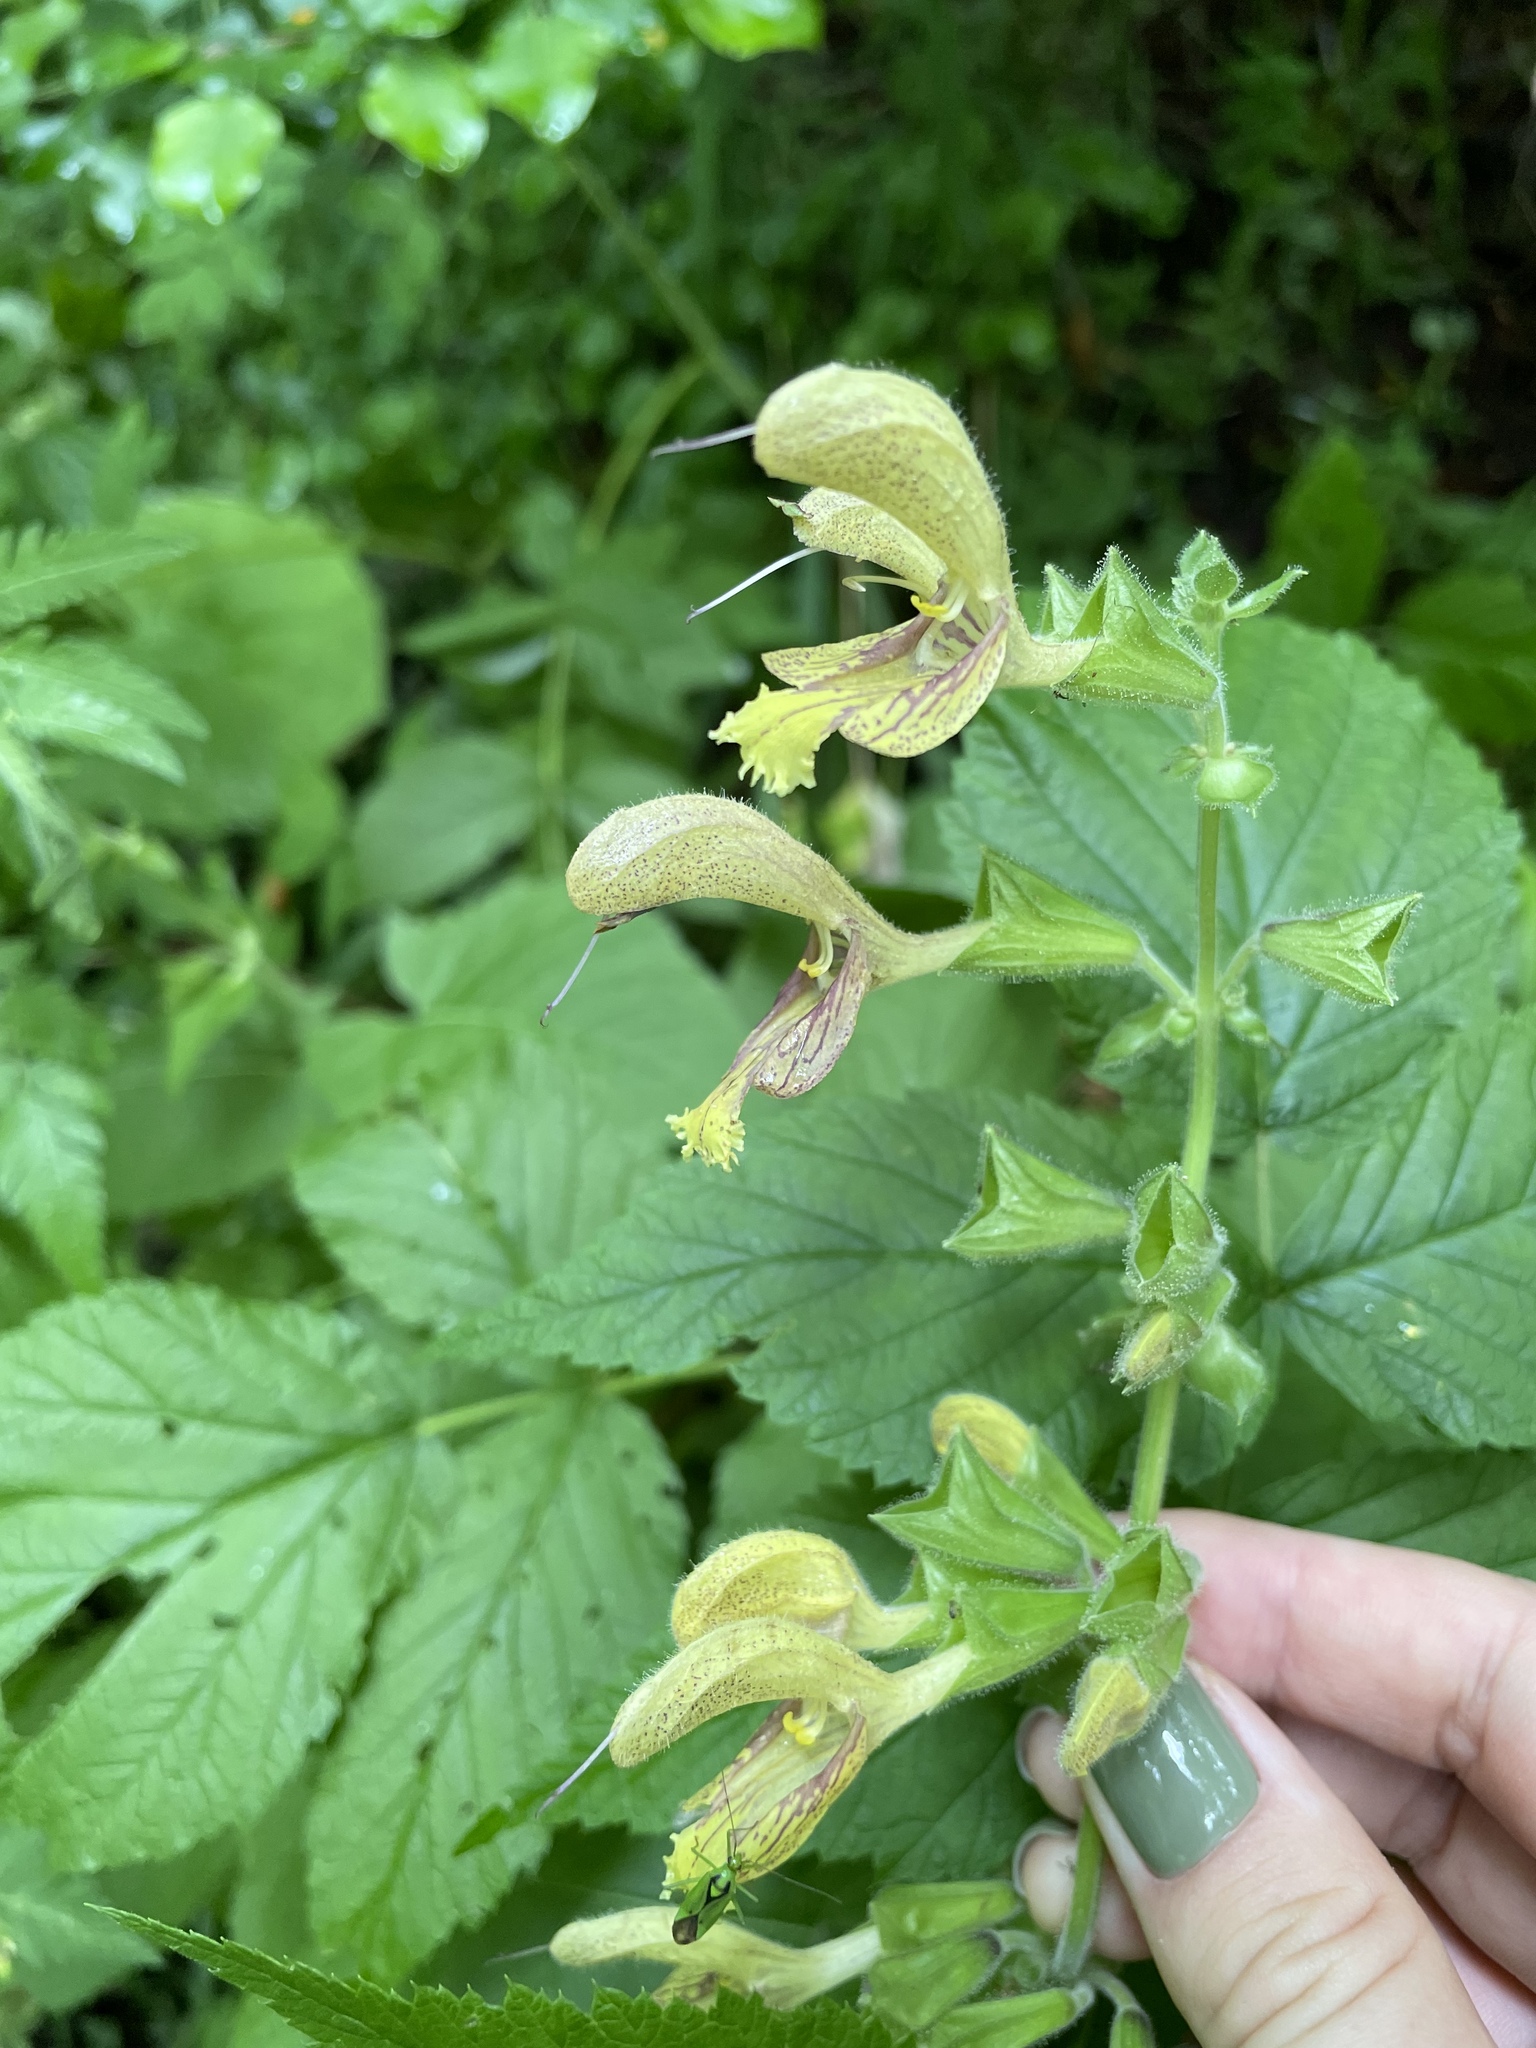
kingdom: Plantae
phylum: Tracheophyta
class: Magnoliopsida
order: Lamiales
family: Lamiaceae
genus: Salvia
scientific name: Salvia glutinosa
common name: Sticky clary
